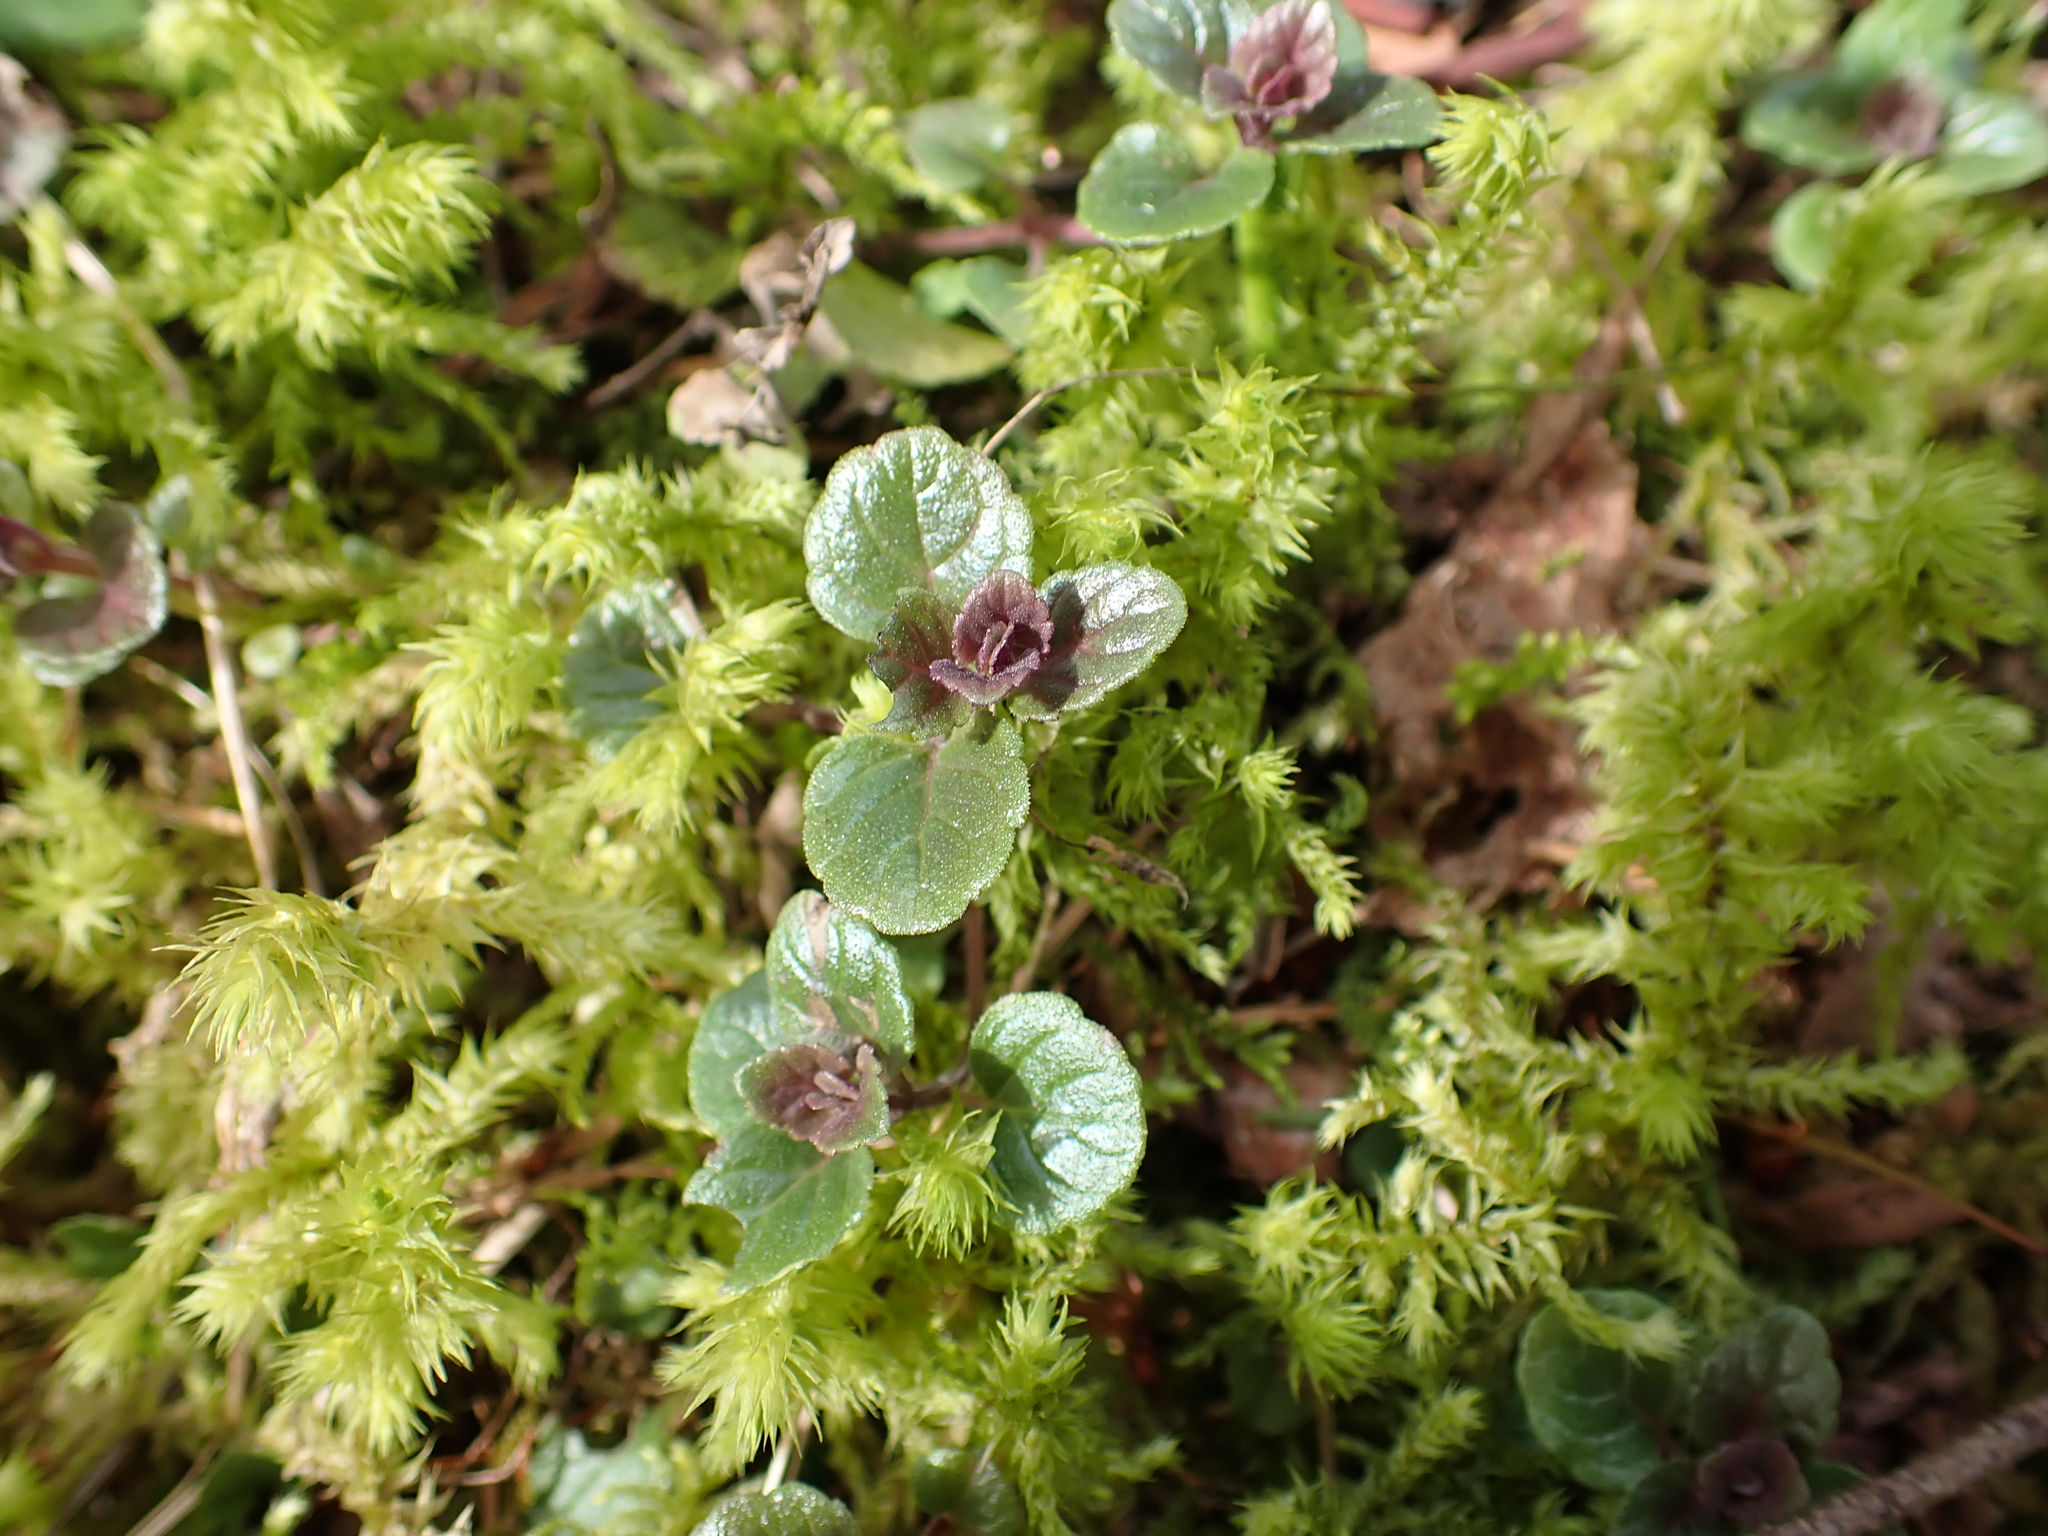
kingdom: Plantae
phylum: Tracheophyta
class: Magnoliopsida
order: Lamiales
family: Lamiaceae
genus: Micromeria
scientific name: Micromeria douglasii
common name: Yerba buena
